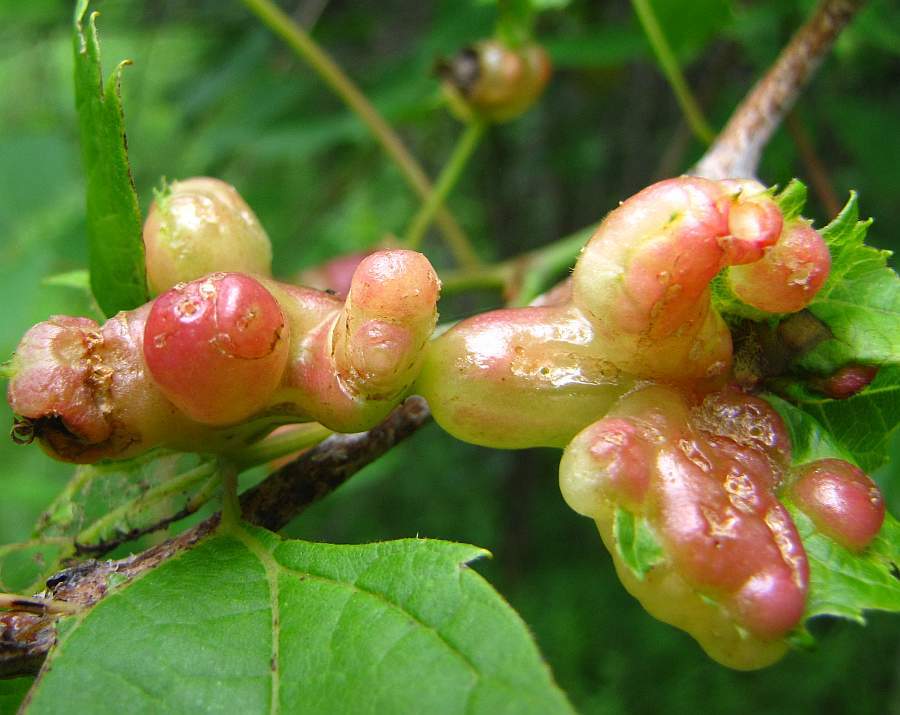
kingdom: Animalia
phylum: Arthropoda
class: Insecta
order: Diptera
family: Cecidomyiidae
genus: Vitisiella
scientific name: Vitisiella brevicauda
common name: Grape tumid gallmaker midge
